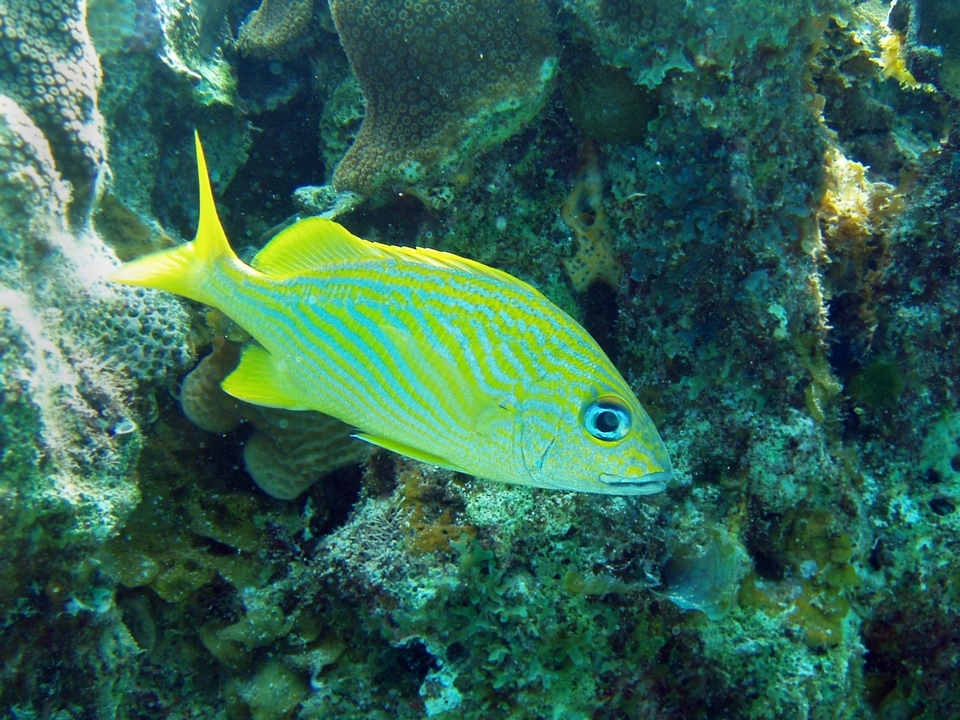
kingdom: Animalia
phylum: Chordata
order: Perciformes
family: Haemulidae
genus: Haemulon
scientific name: Haemulon flavolineatum
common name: French grunt
